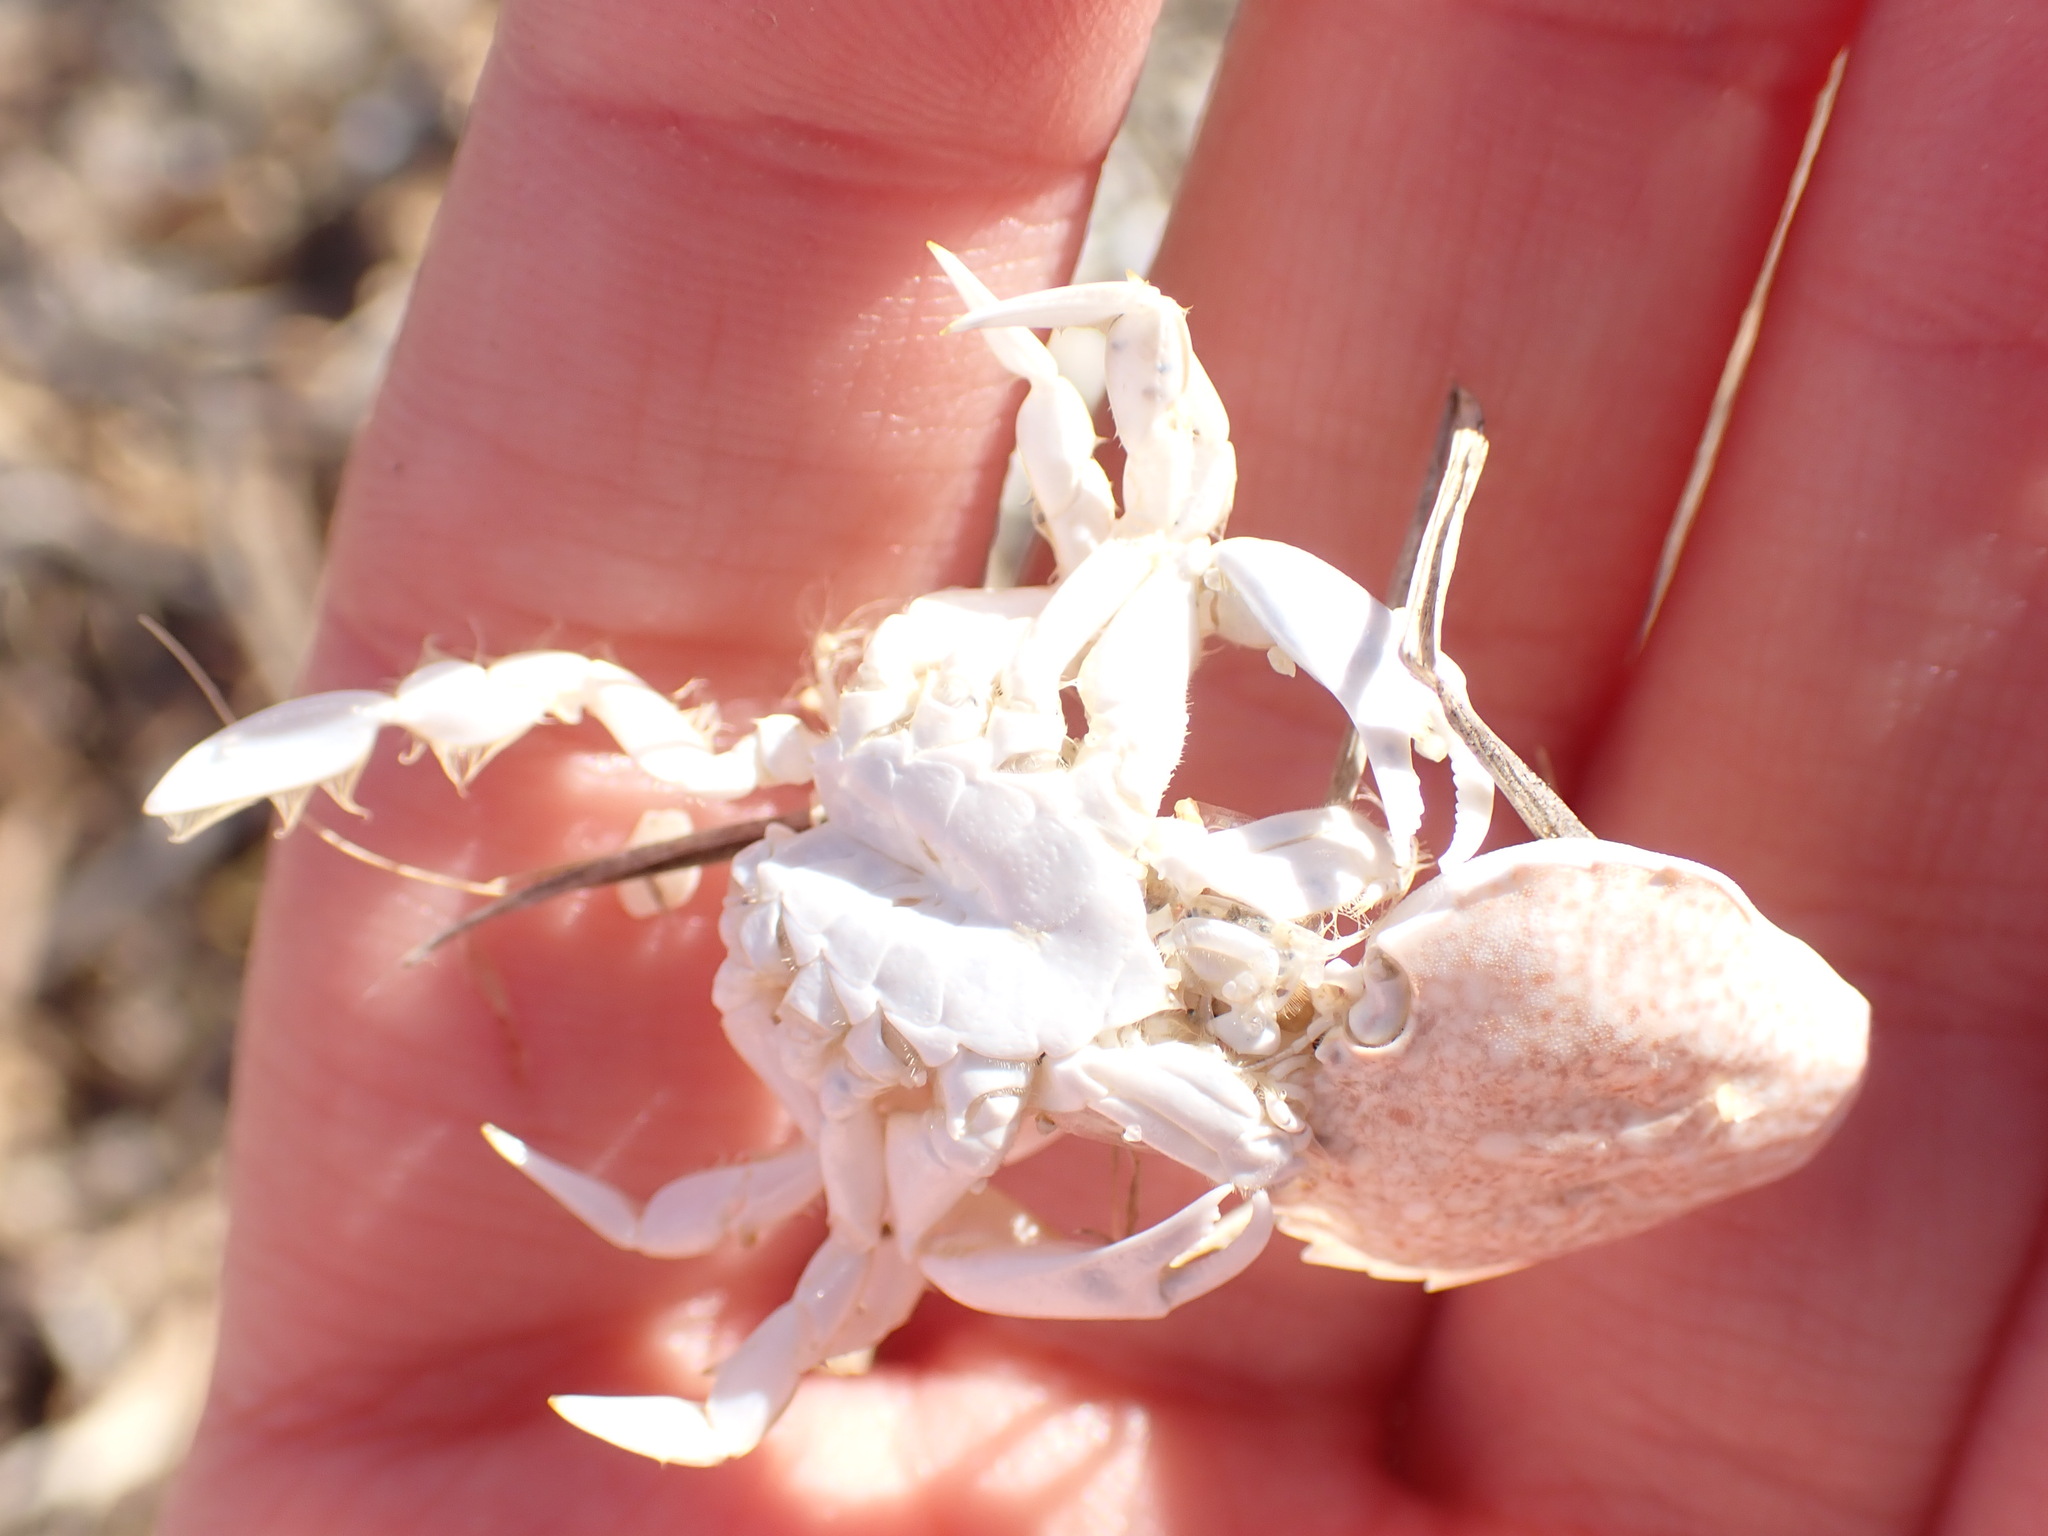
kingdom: Animalia
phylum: Arthropoda
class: Malacostraca
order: Decapoda
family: Carcinidae
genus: Portumnus
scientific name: Portumnus latipes
